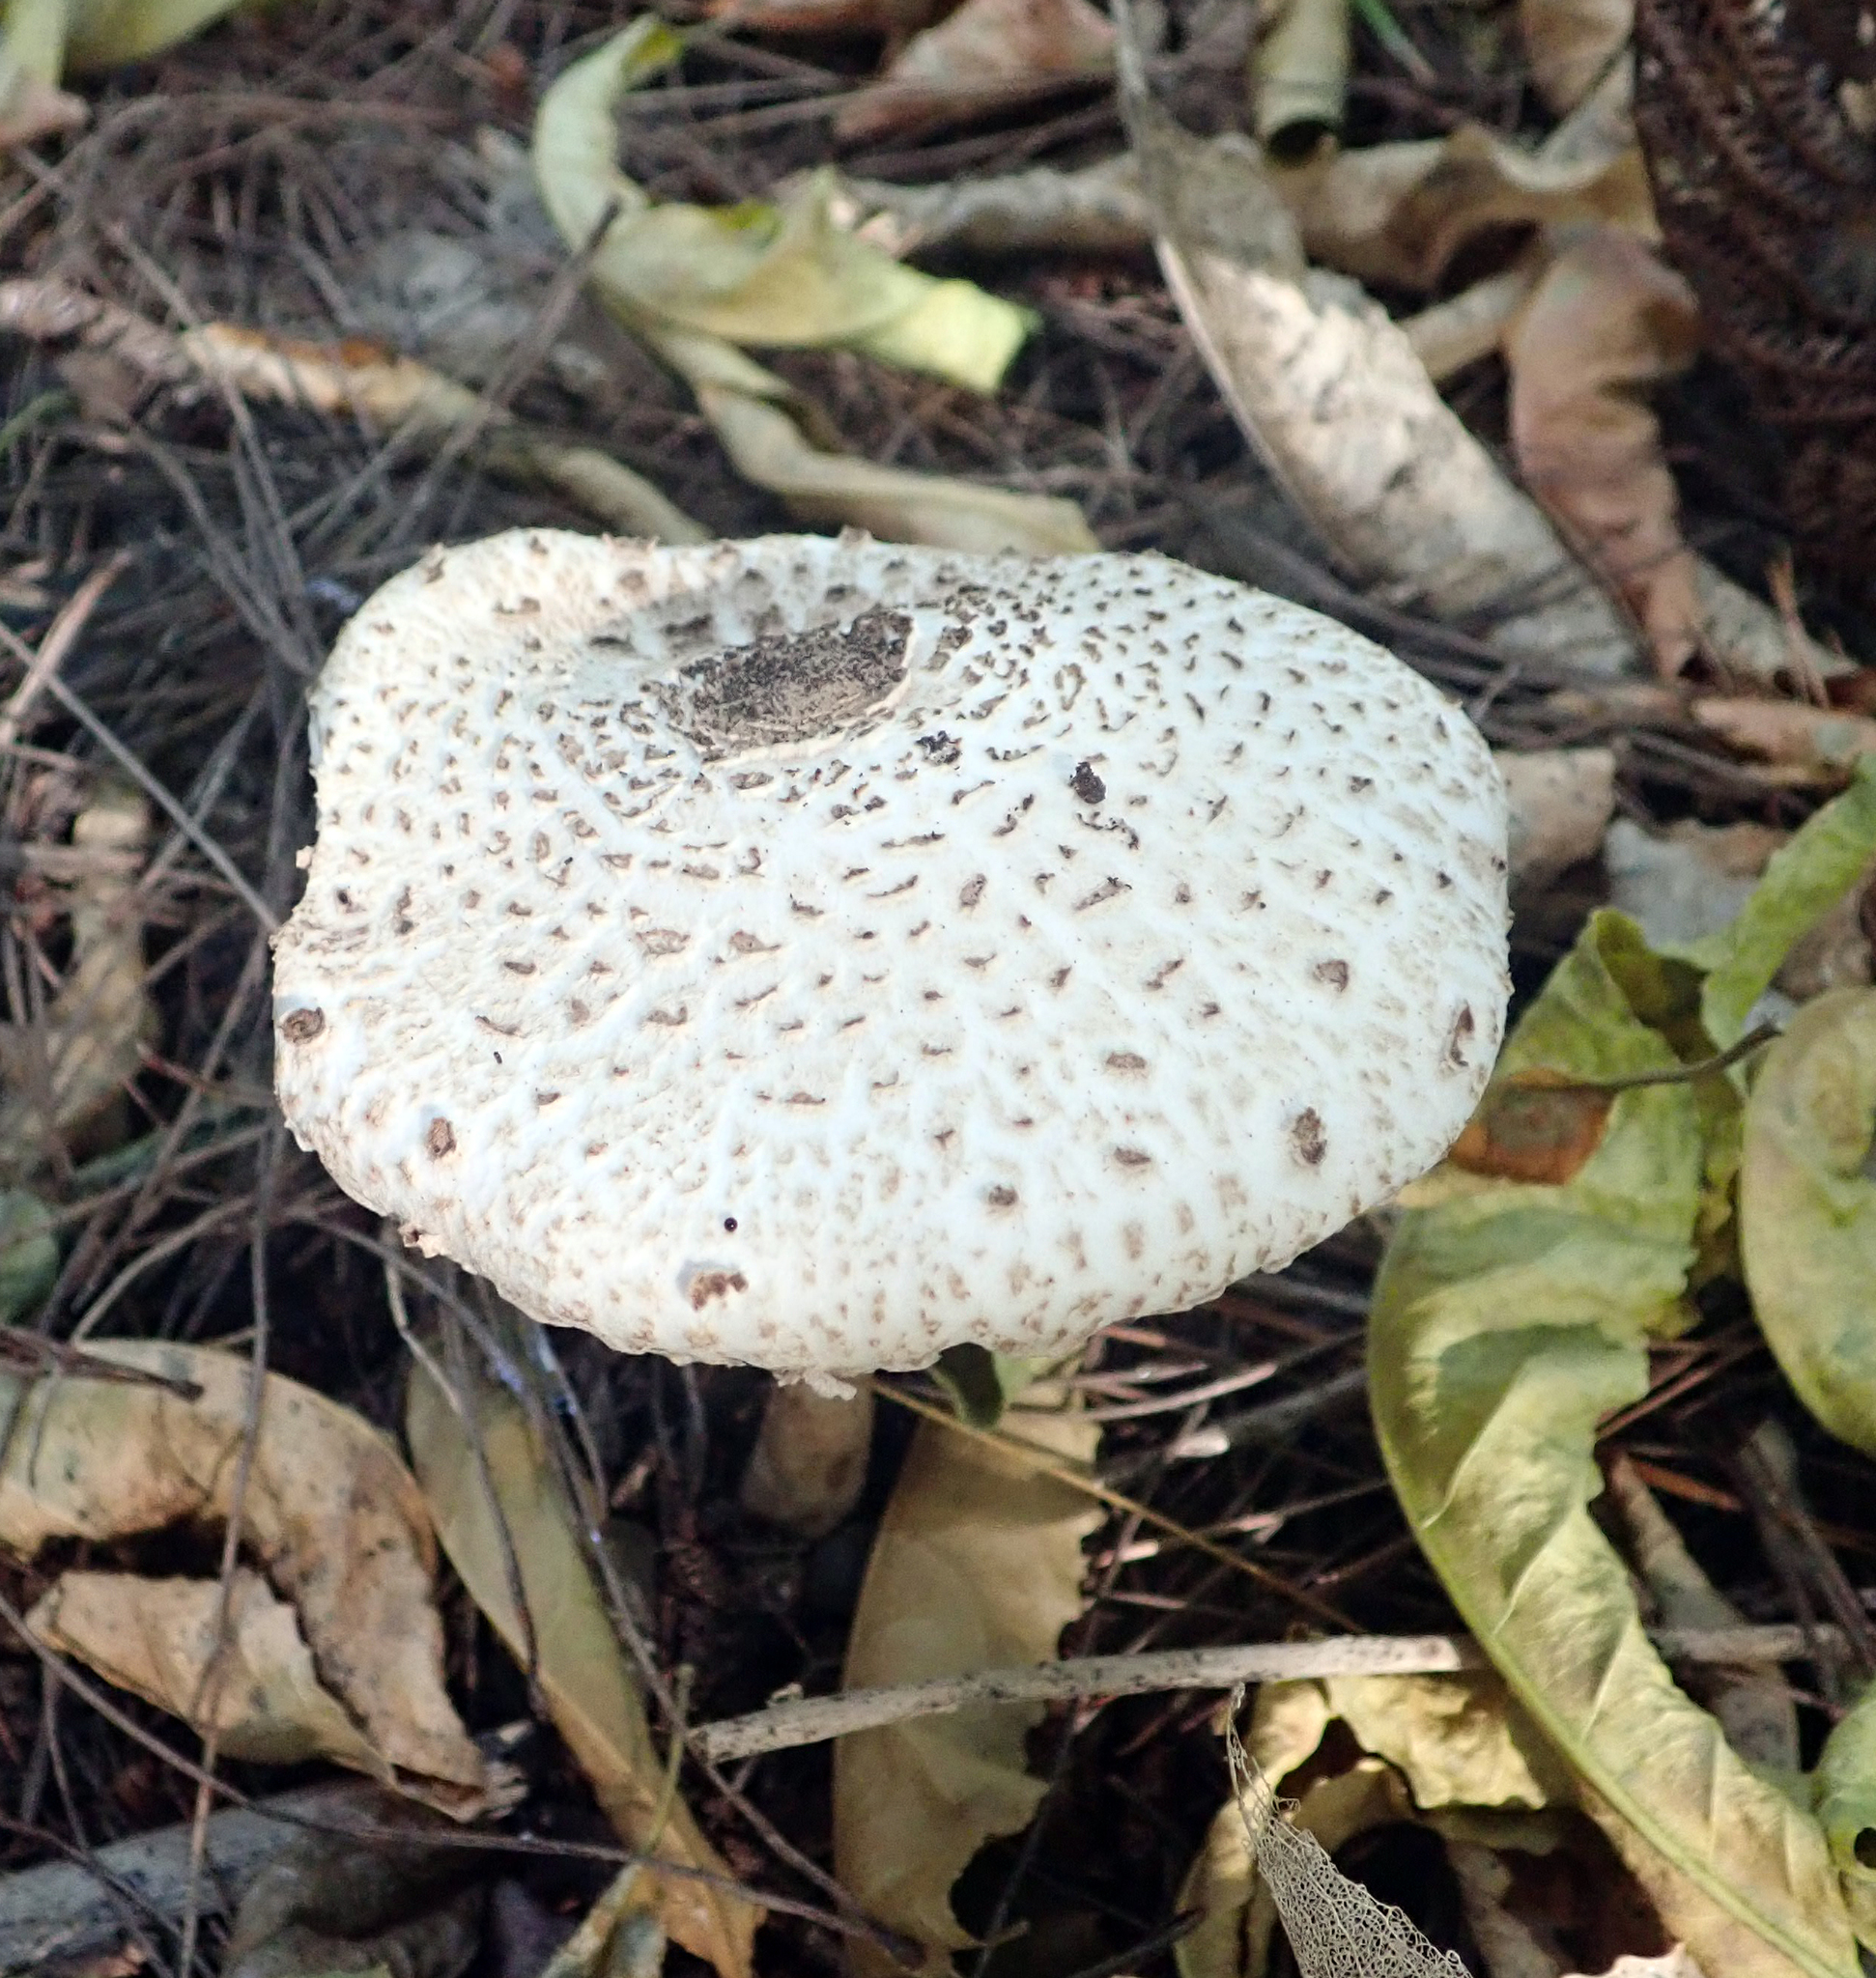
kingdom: Fungi
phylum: Basidiomycota
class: Agaricomycetes
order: Agaricales
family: Agaricaceae
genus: Macrolepiota
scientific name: Macrolepiota clelandii
